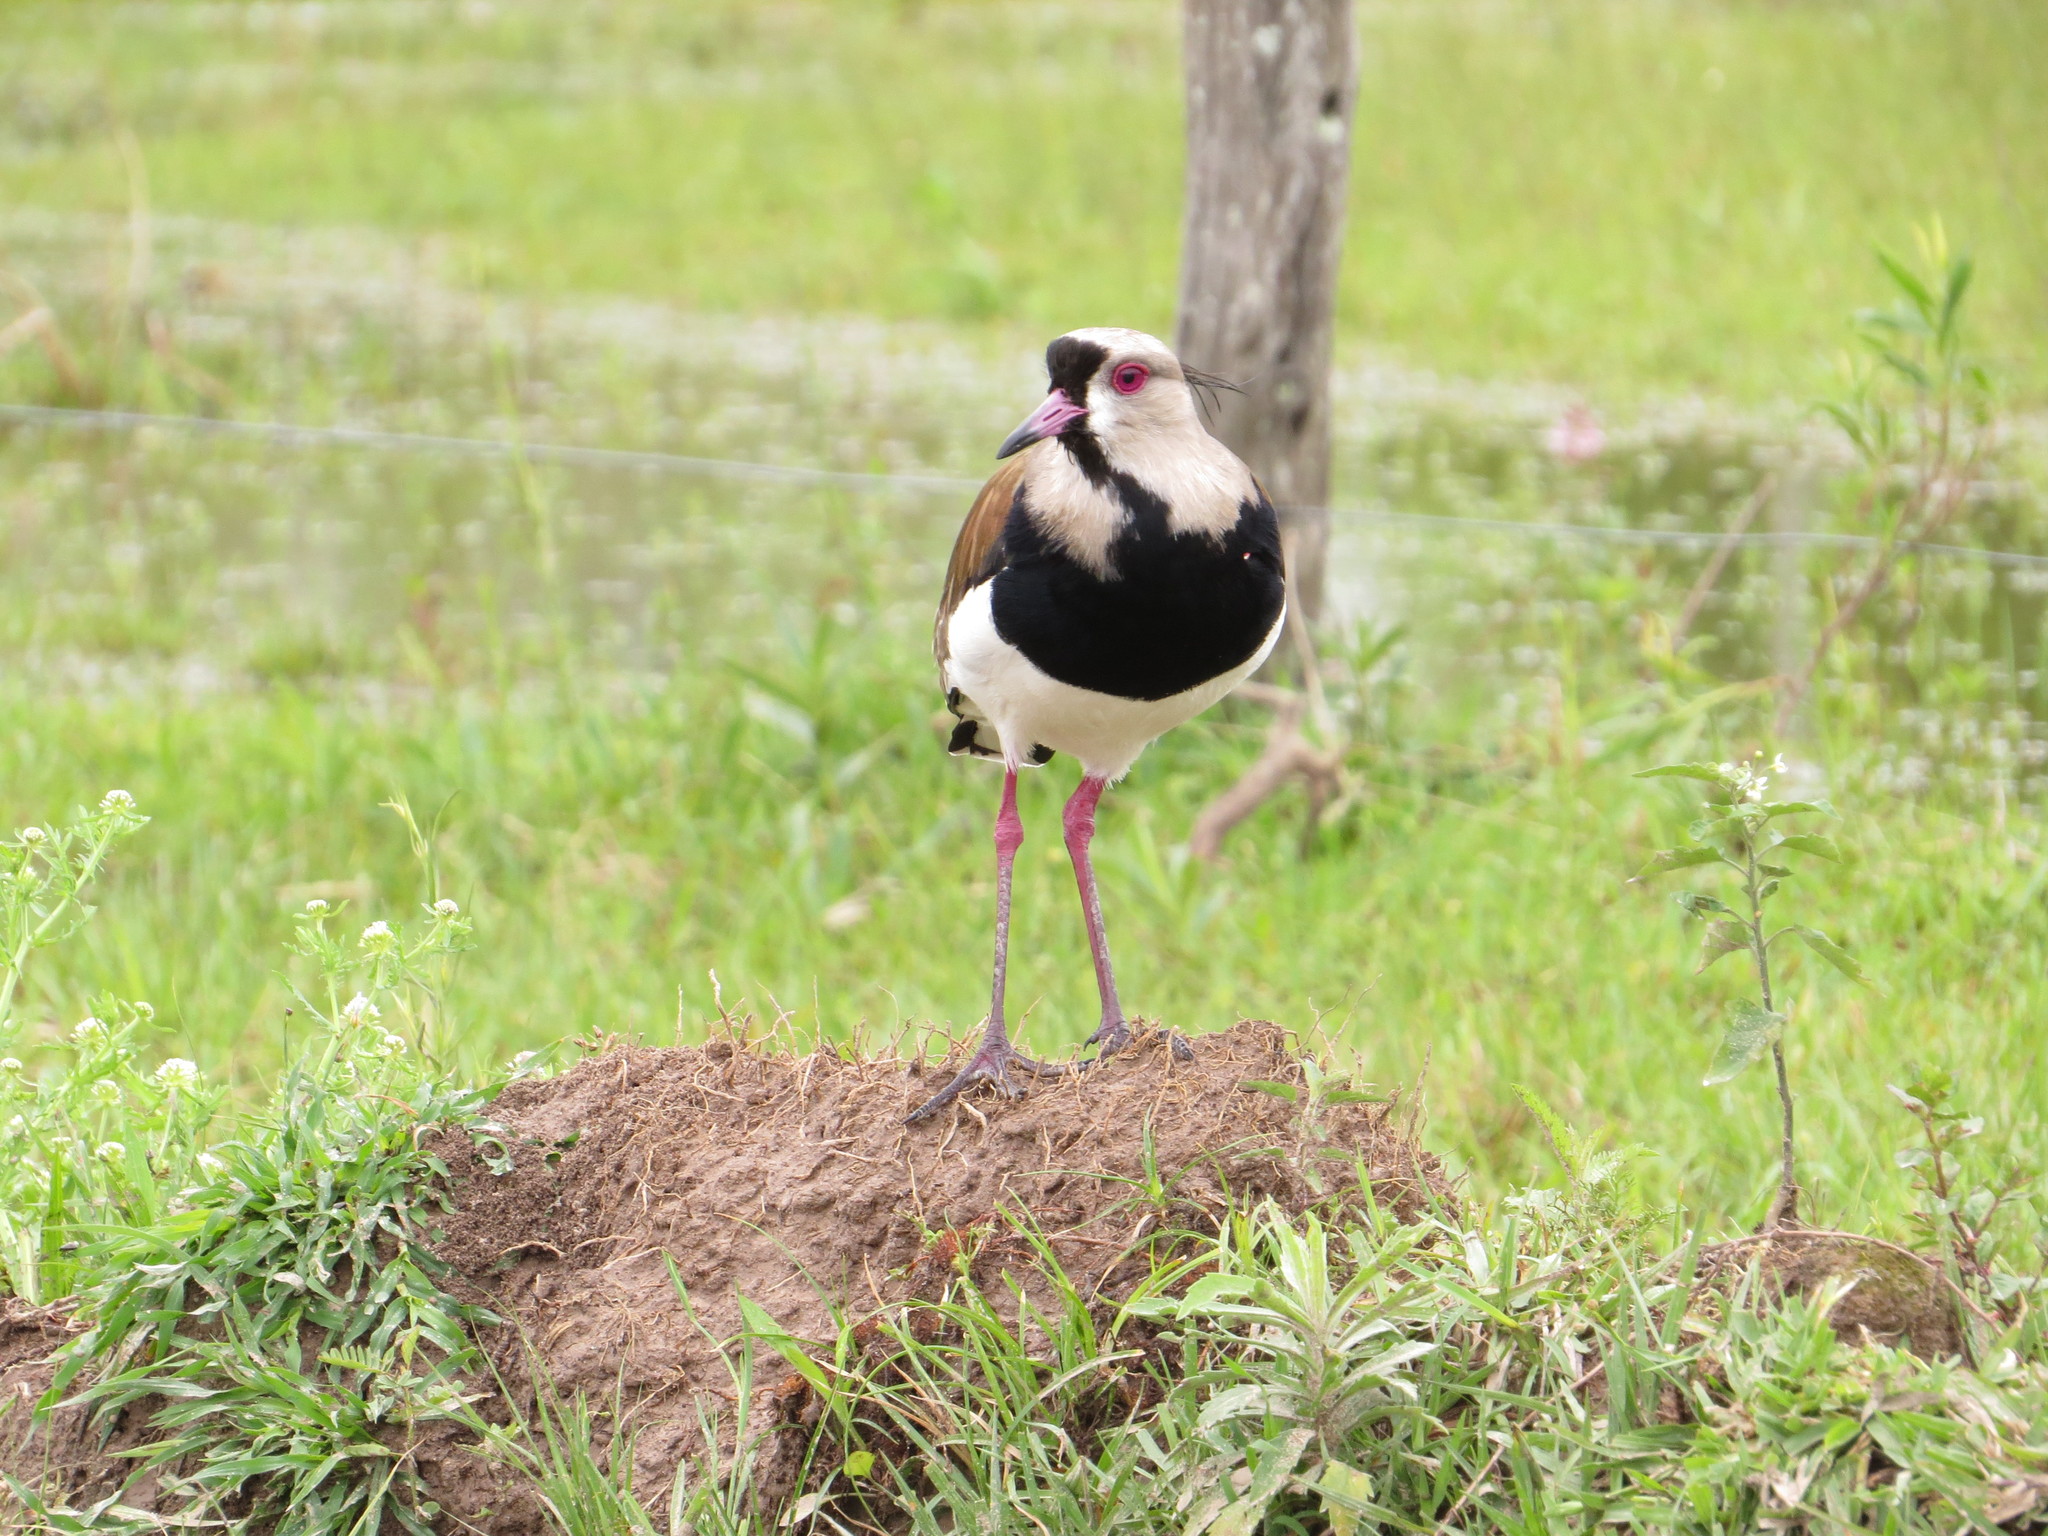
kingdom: Animalia
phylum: Chordata
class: Aves
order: Charadriiformes
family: Charadriidae
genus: Vanellus
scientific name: Vanellus chilensis
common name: Southern lapwing
